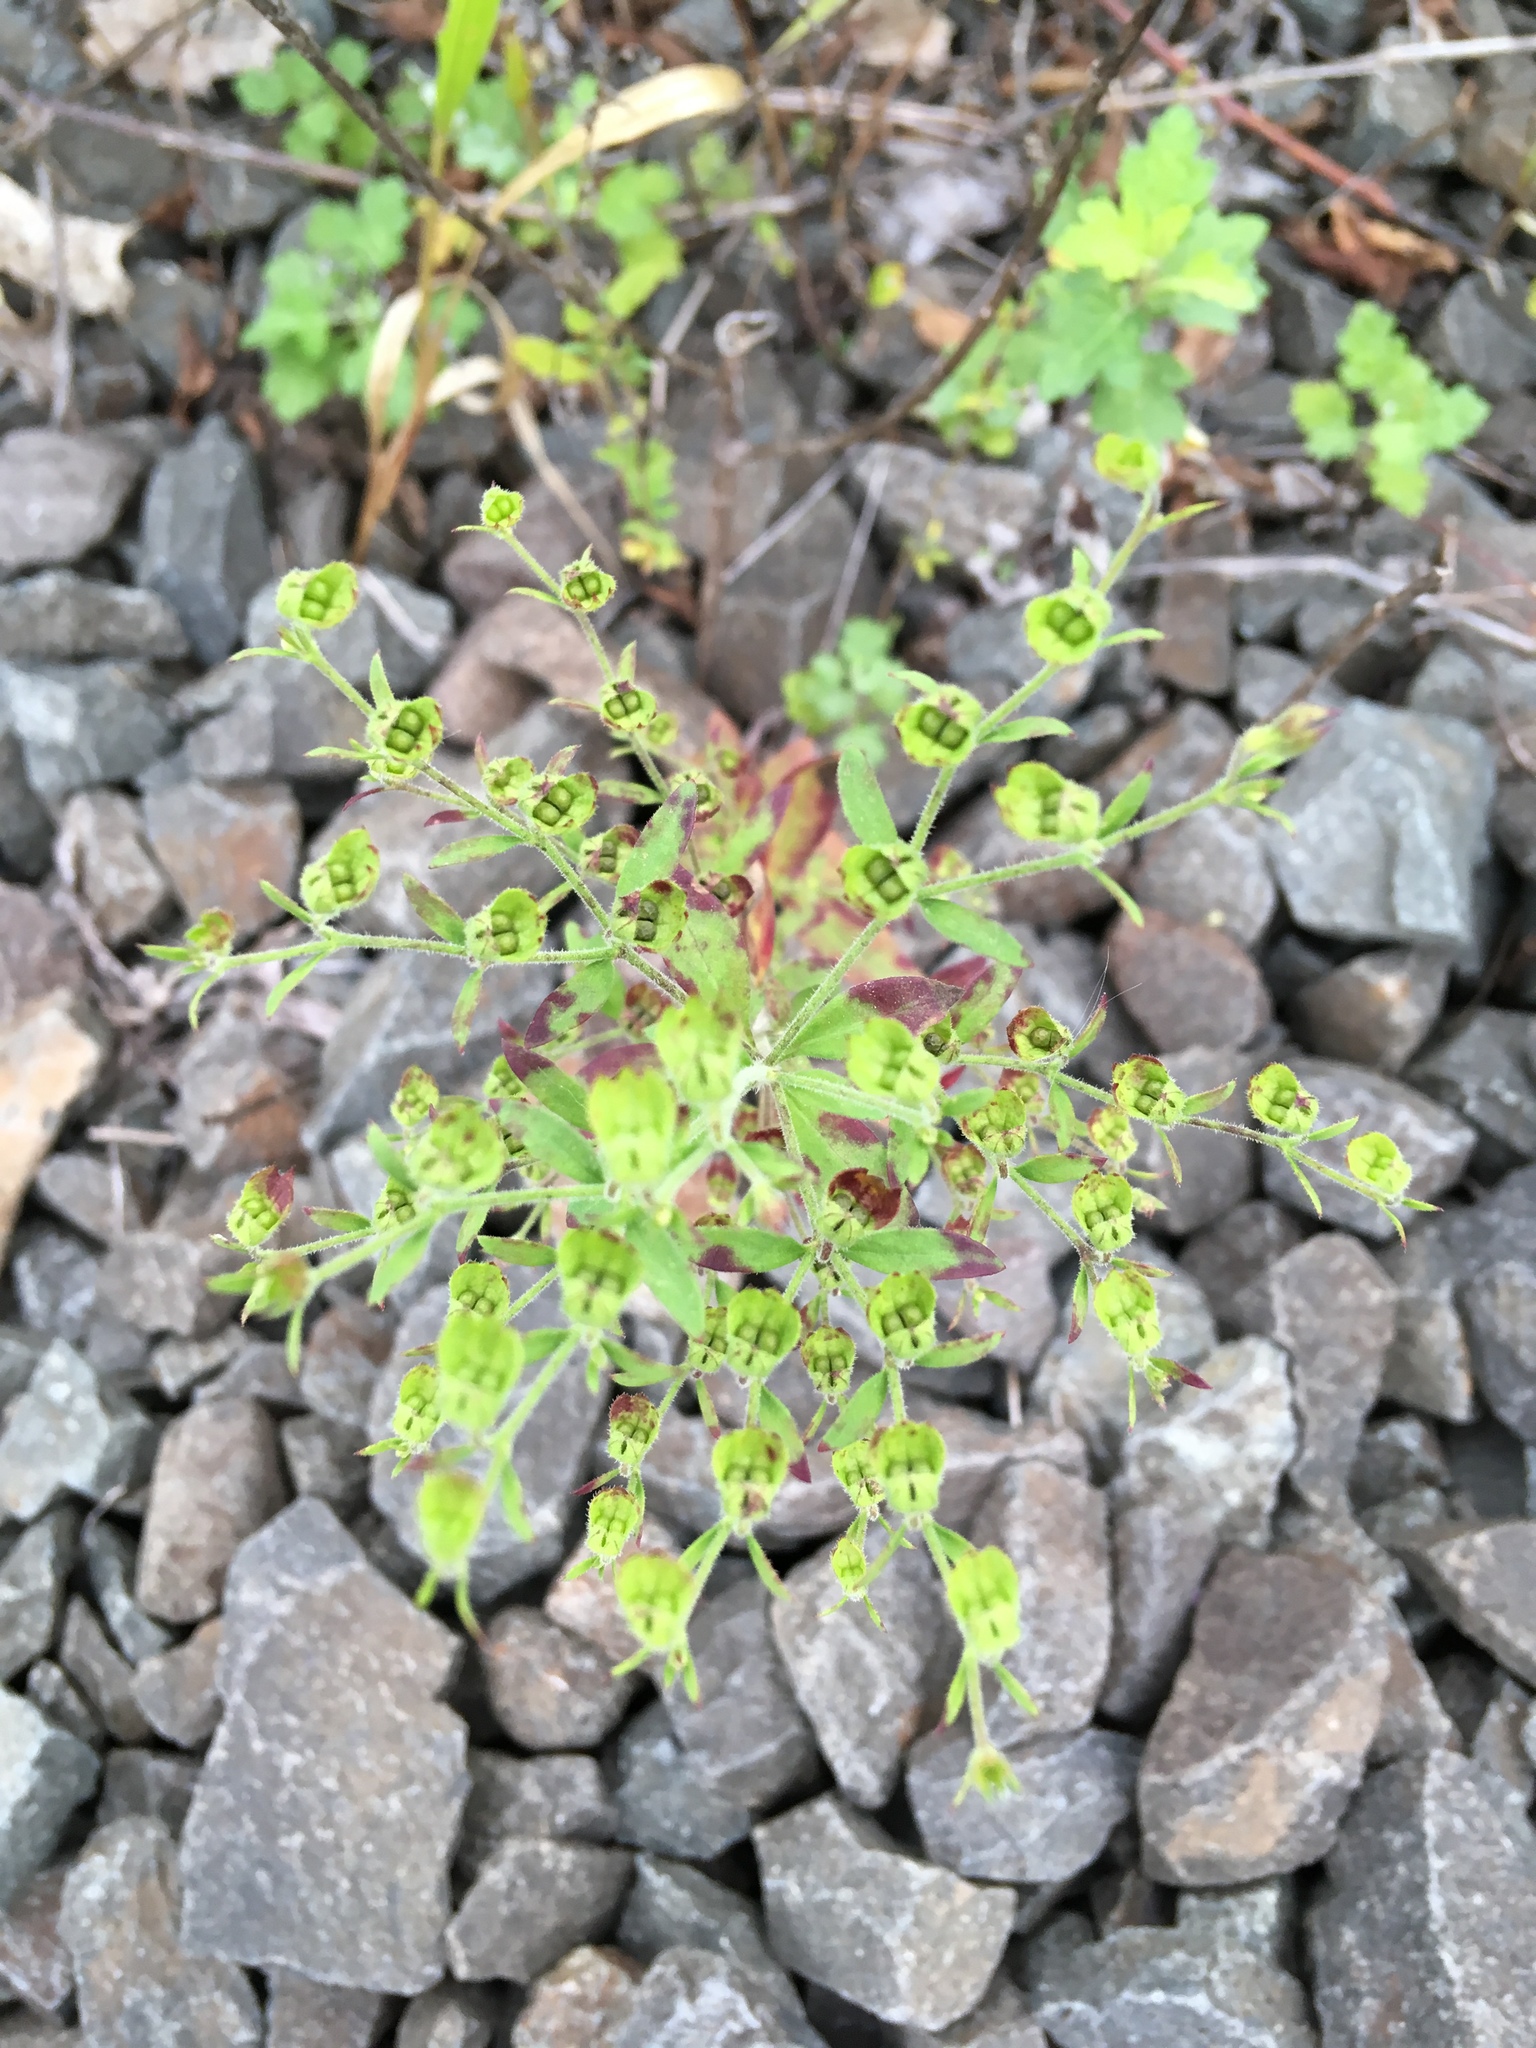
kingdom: Plantae
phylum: Tracheophyta
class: Magnoliopsida
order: Lamiales
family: Lamiaceae
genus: Trichostema
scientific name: Trichostema dichotomum
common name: Bastard pennyroyal
